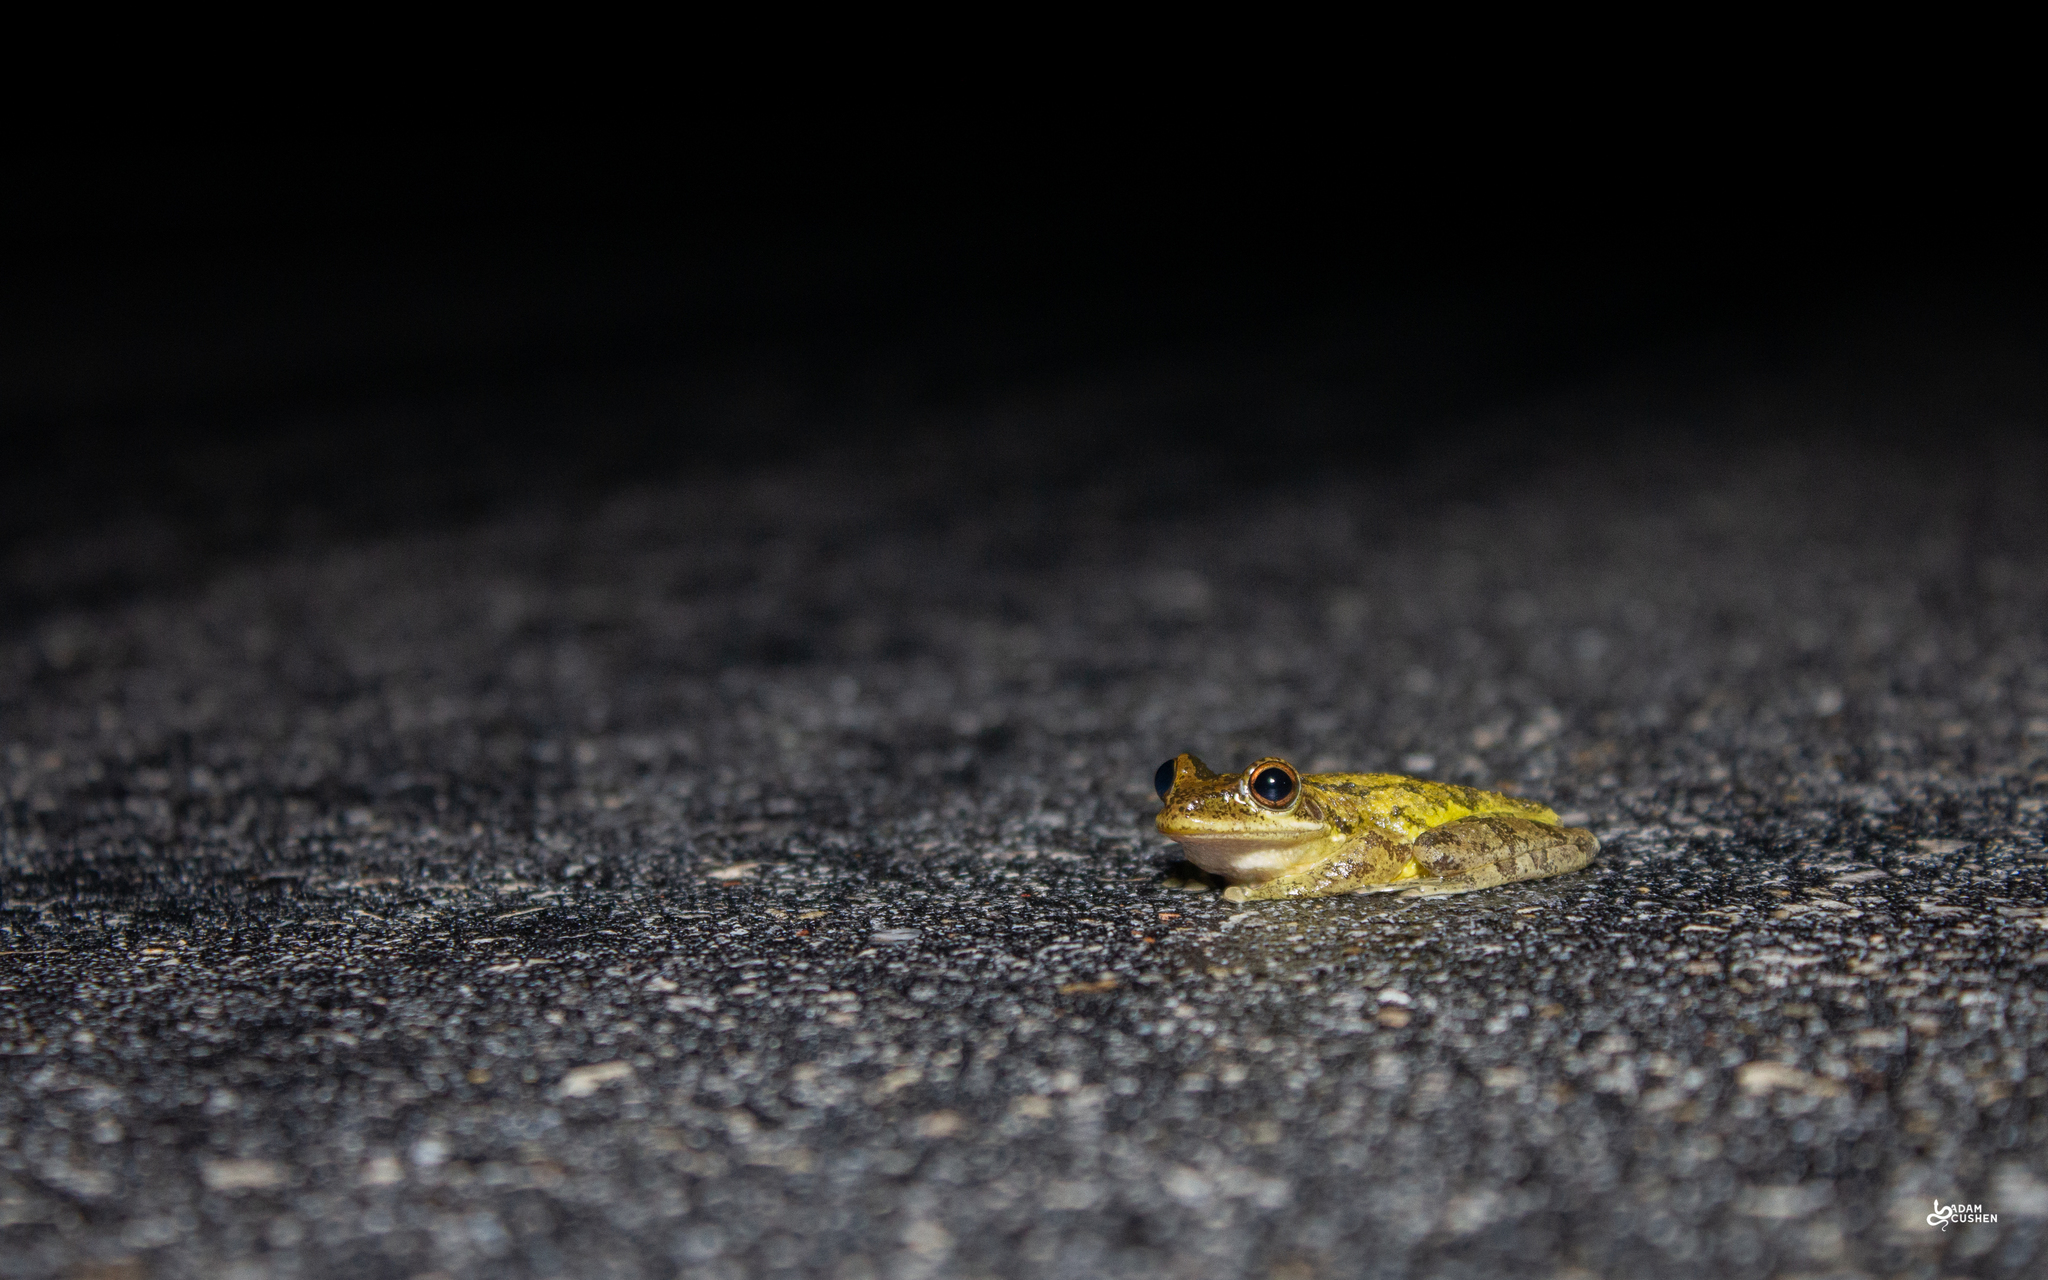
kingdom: Animalia
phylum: Chordata
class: Amphibia
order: Anura
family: Hylidae
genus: Osteopilus
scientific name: Osteopilus septentrionalis
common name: Cuban treefrog
